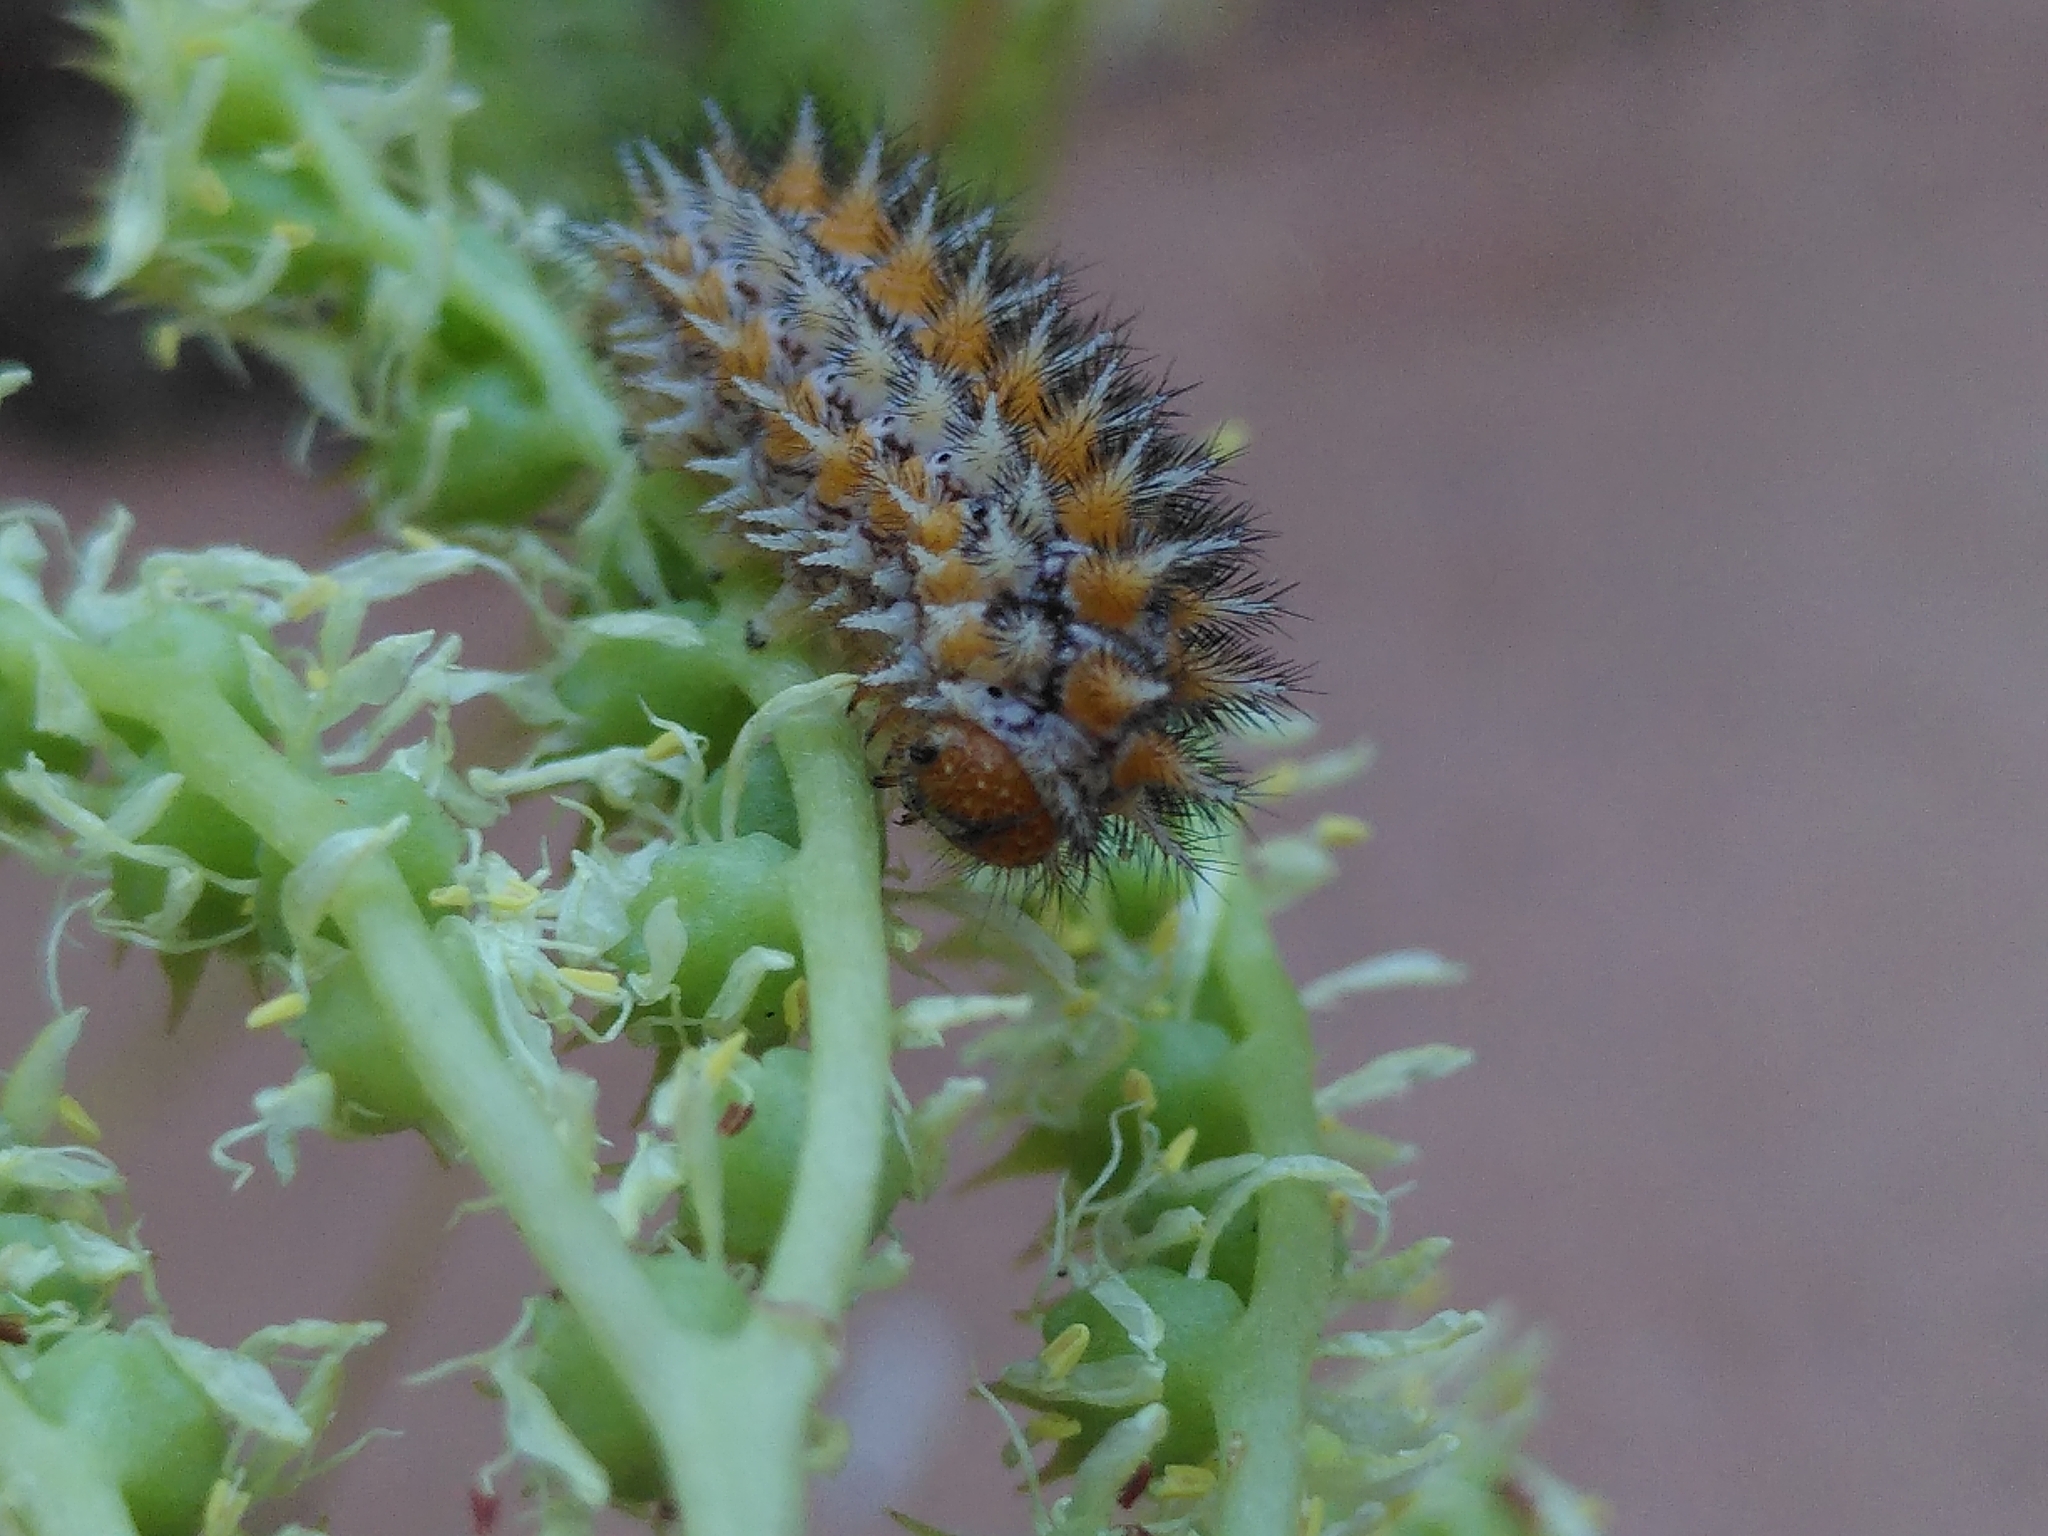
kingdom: Animalia
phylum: Arthropoda
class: Insecta
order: Lepidoptera
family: Nymphalidae
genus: Melitaea
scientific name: Melitaea didyma
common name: Spotted fritillary
